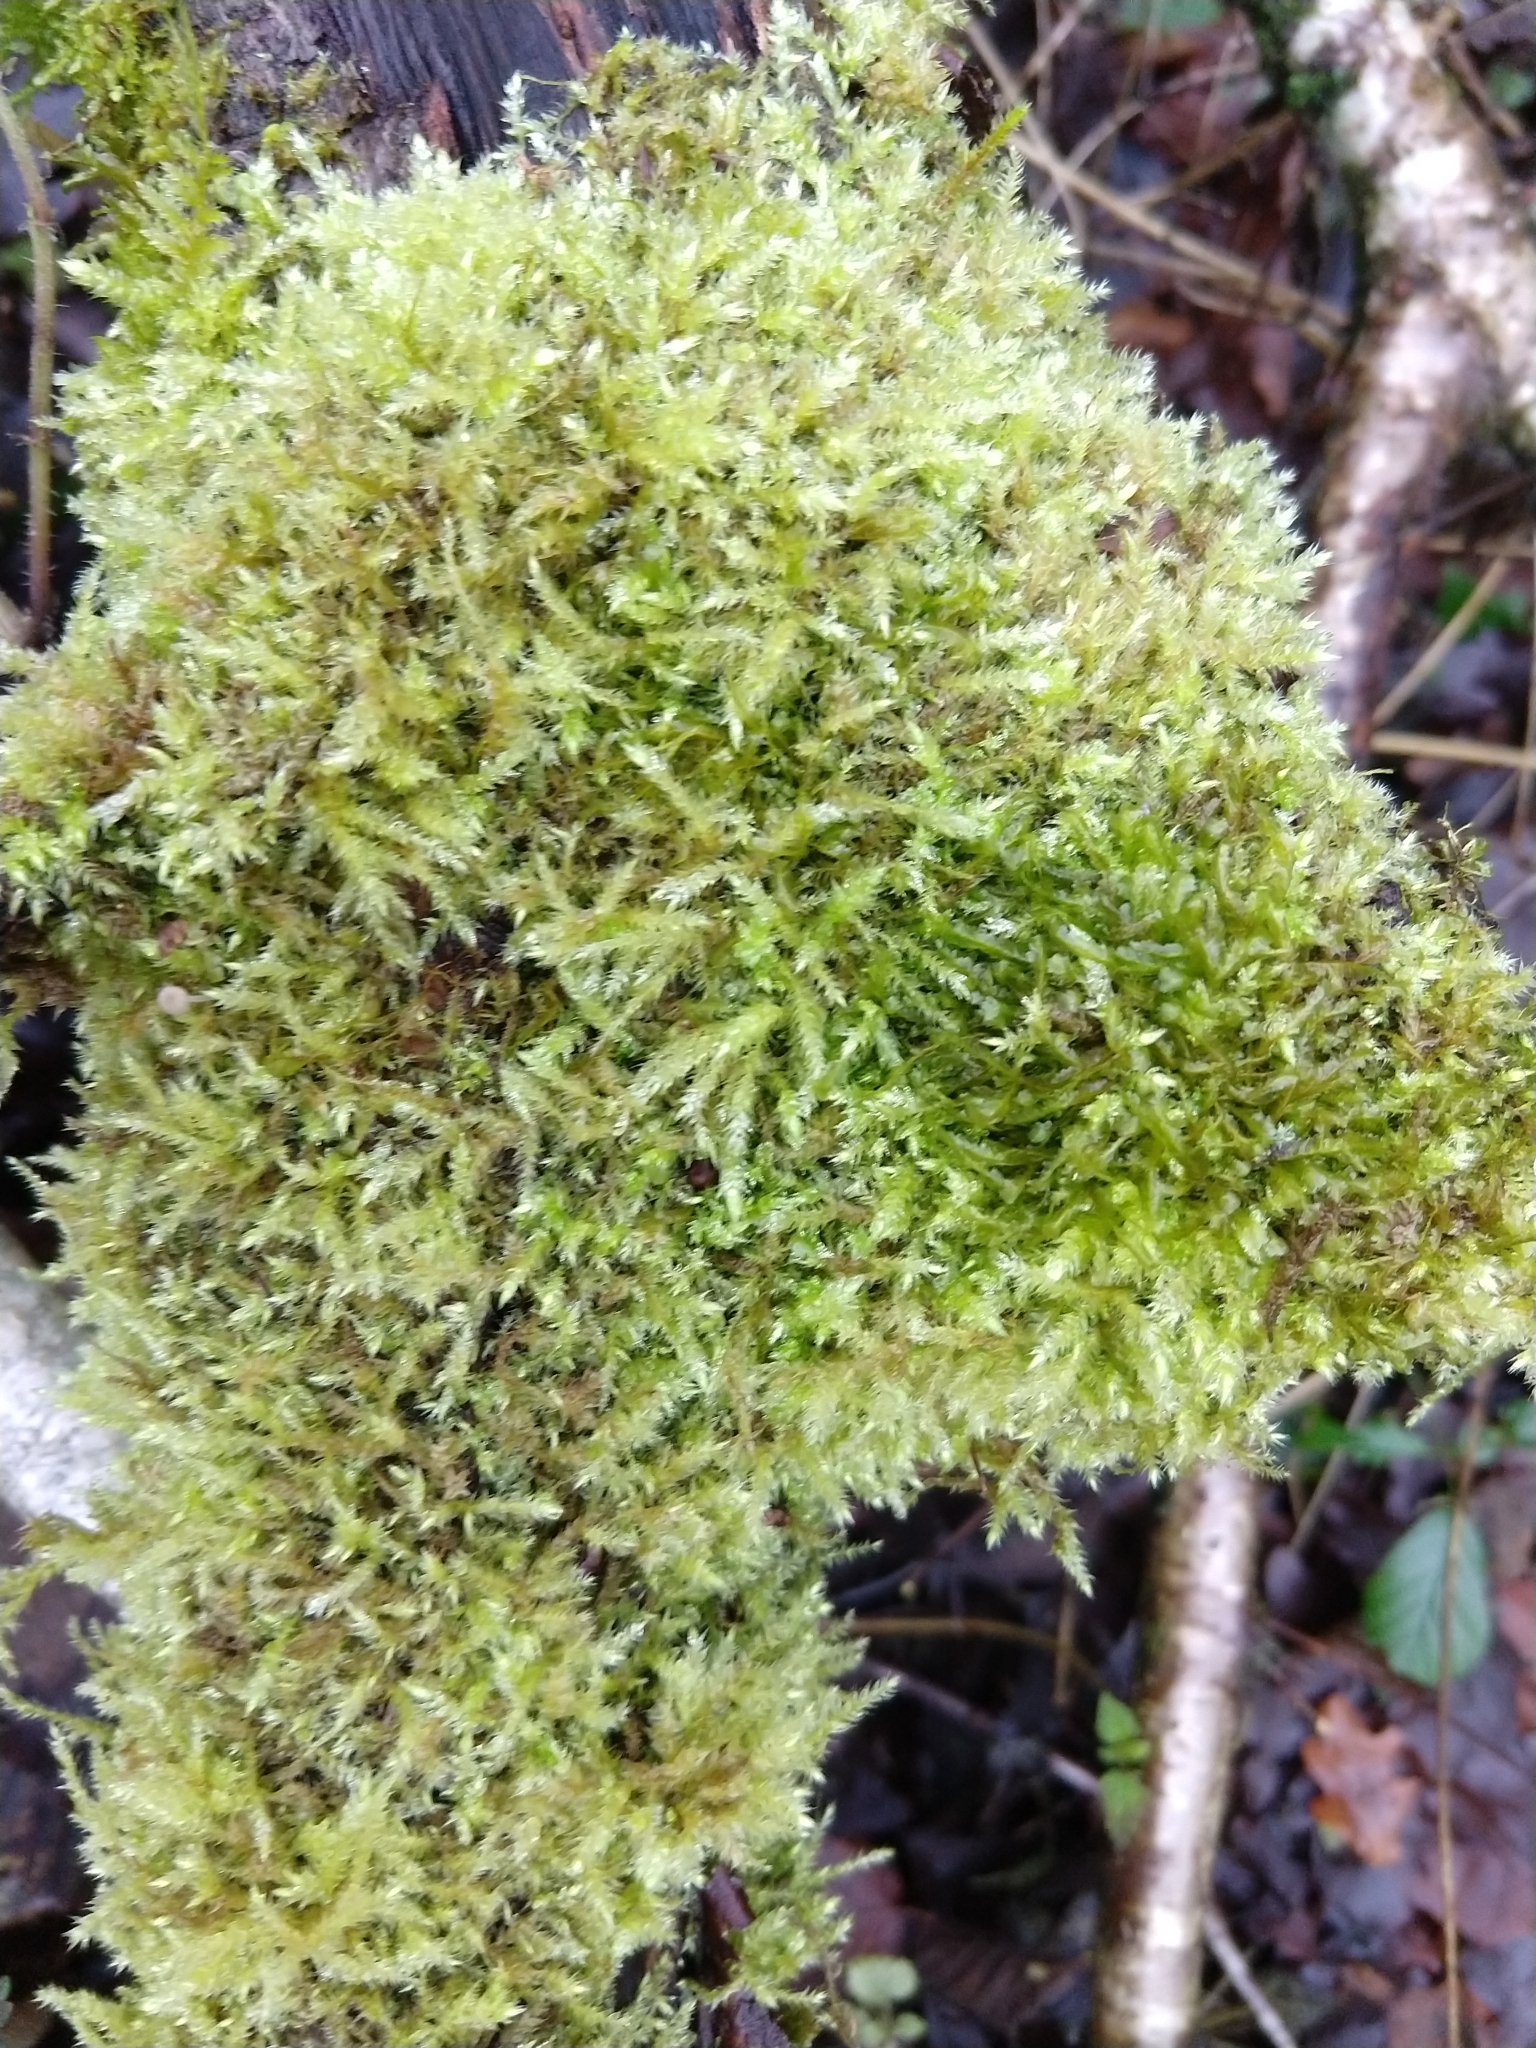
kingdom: Plantae
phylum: Bryophyta
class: Bryopsida
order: Hypnales
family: Brachytheciaceae
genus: Brachythecium
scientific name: Brachythecium rutabulum
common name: Rough-stalked feather-moss
